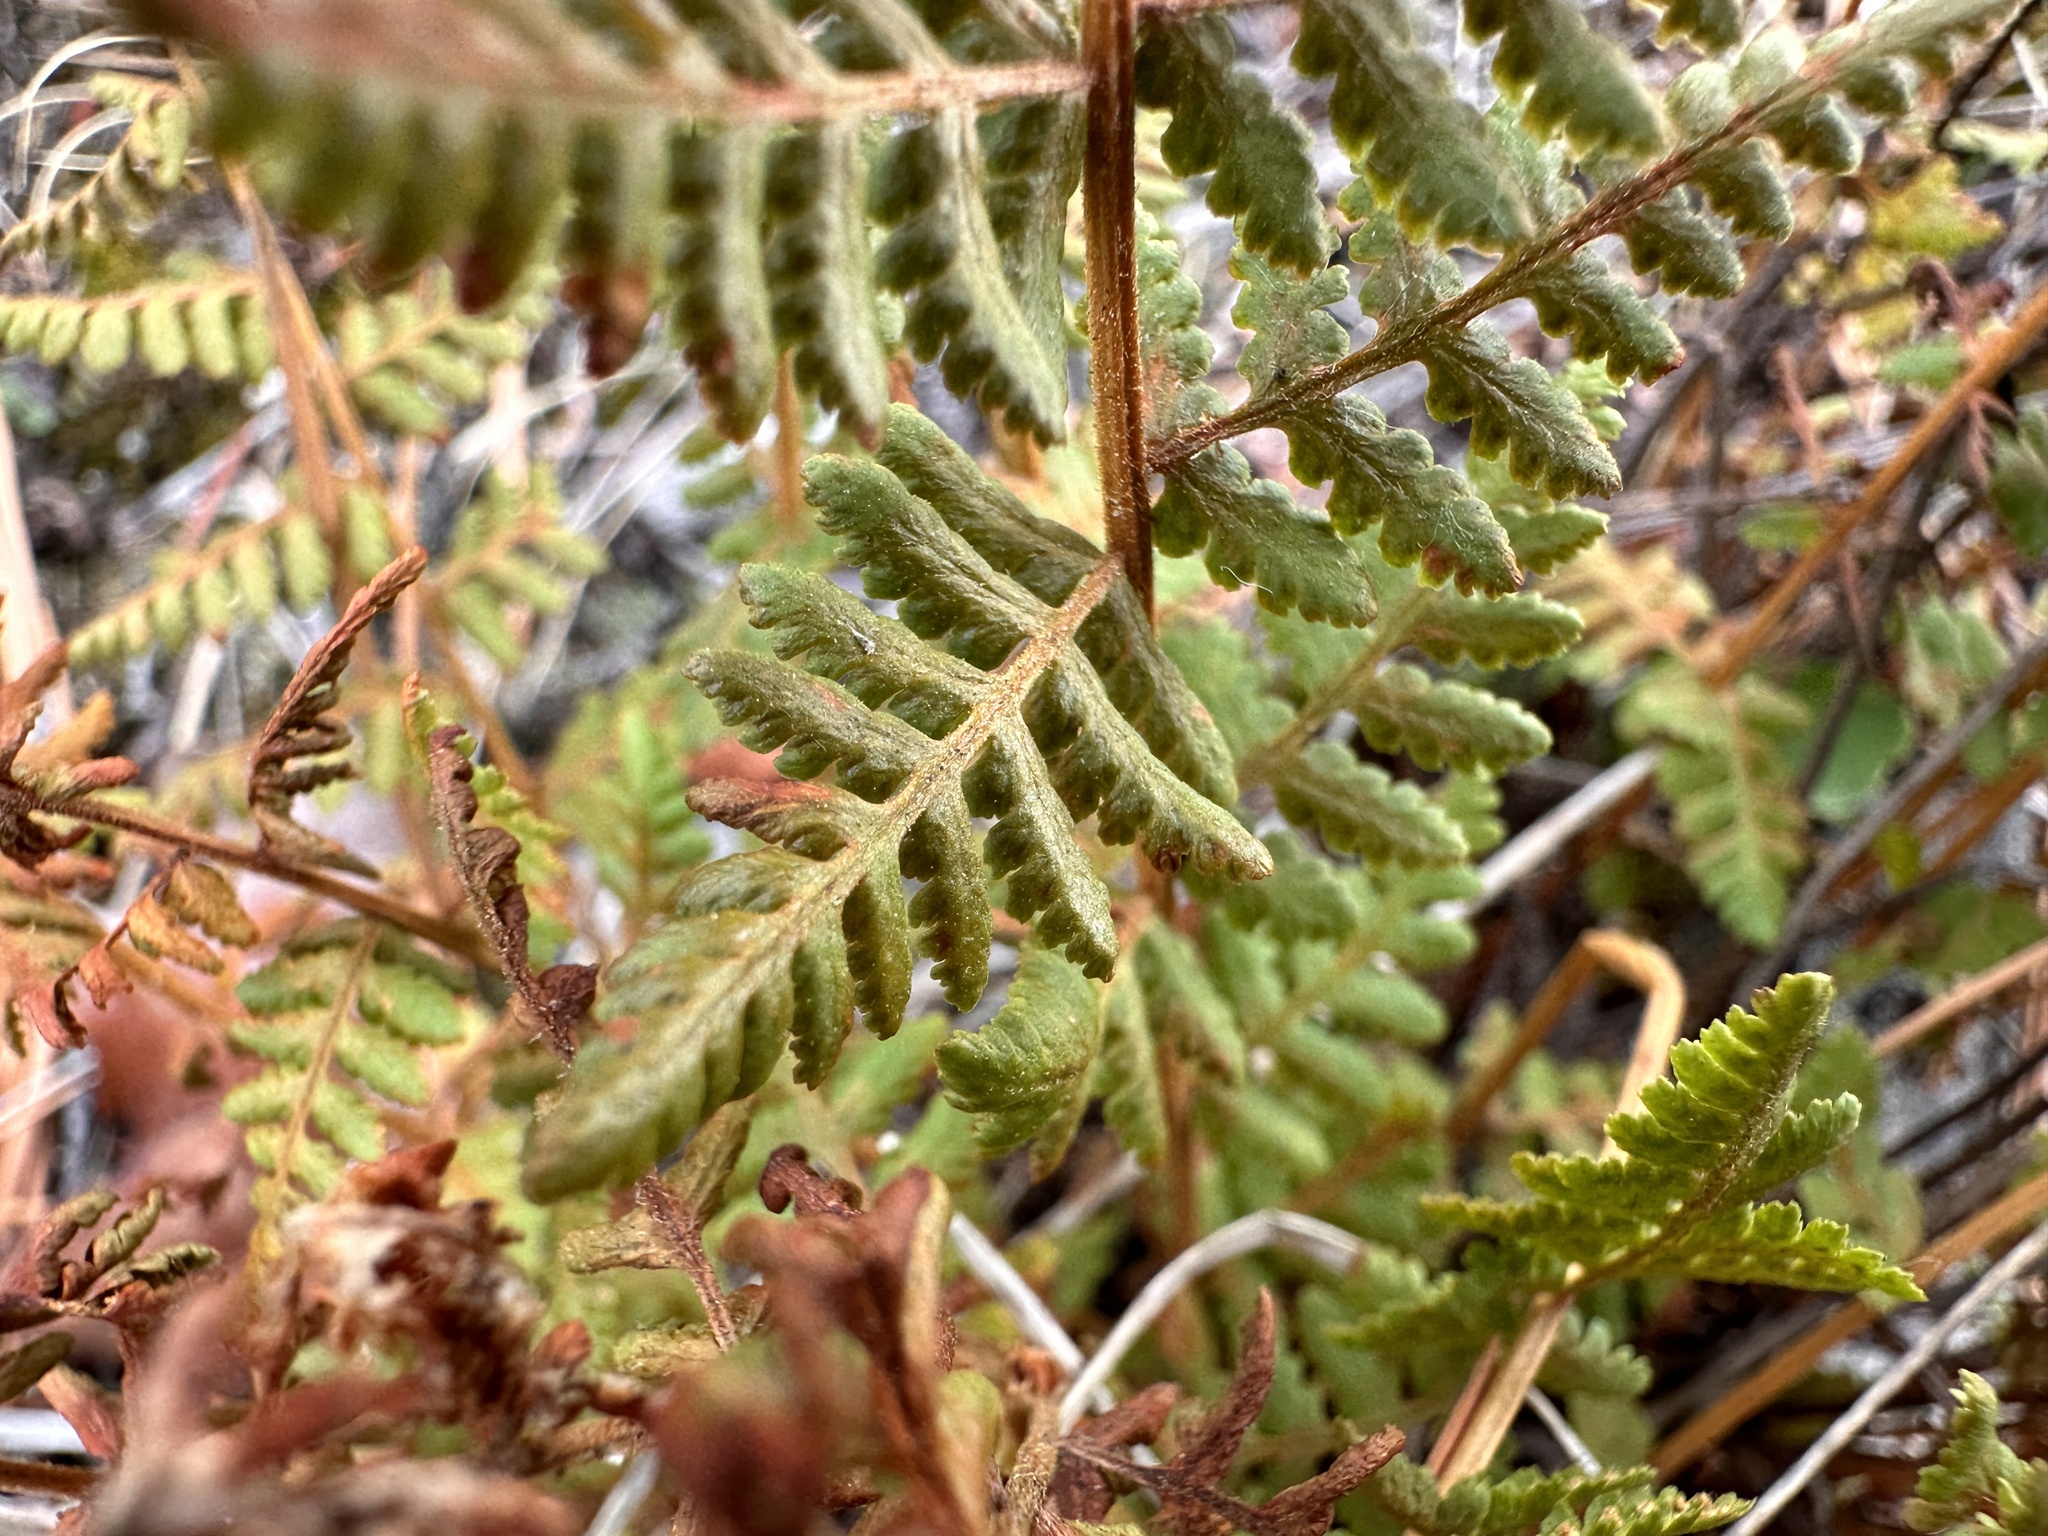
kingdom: Plantae
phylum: Tracheophyta
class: Polypodiopsida
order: Polypodiales
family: Woodsiaceae
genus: Physematium
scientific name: Physematium scopulinum
